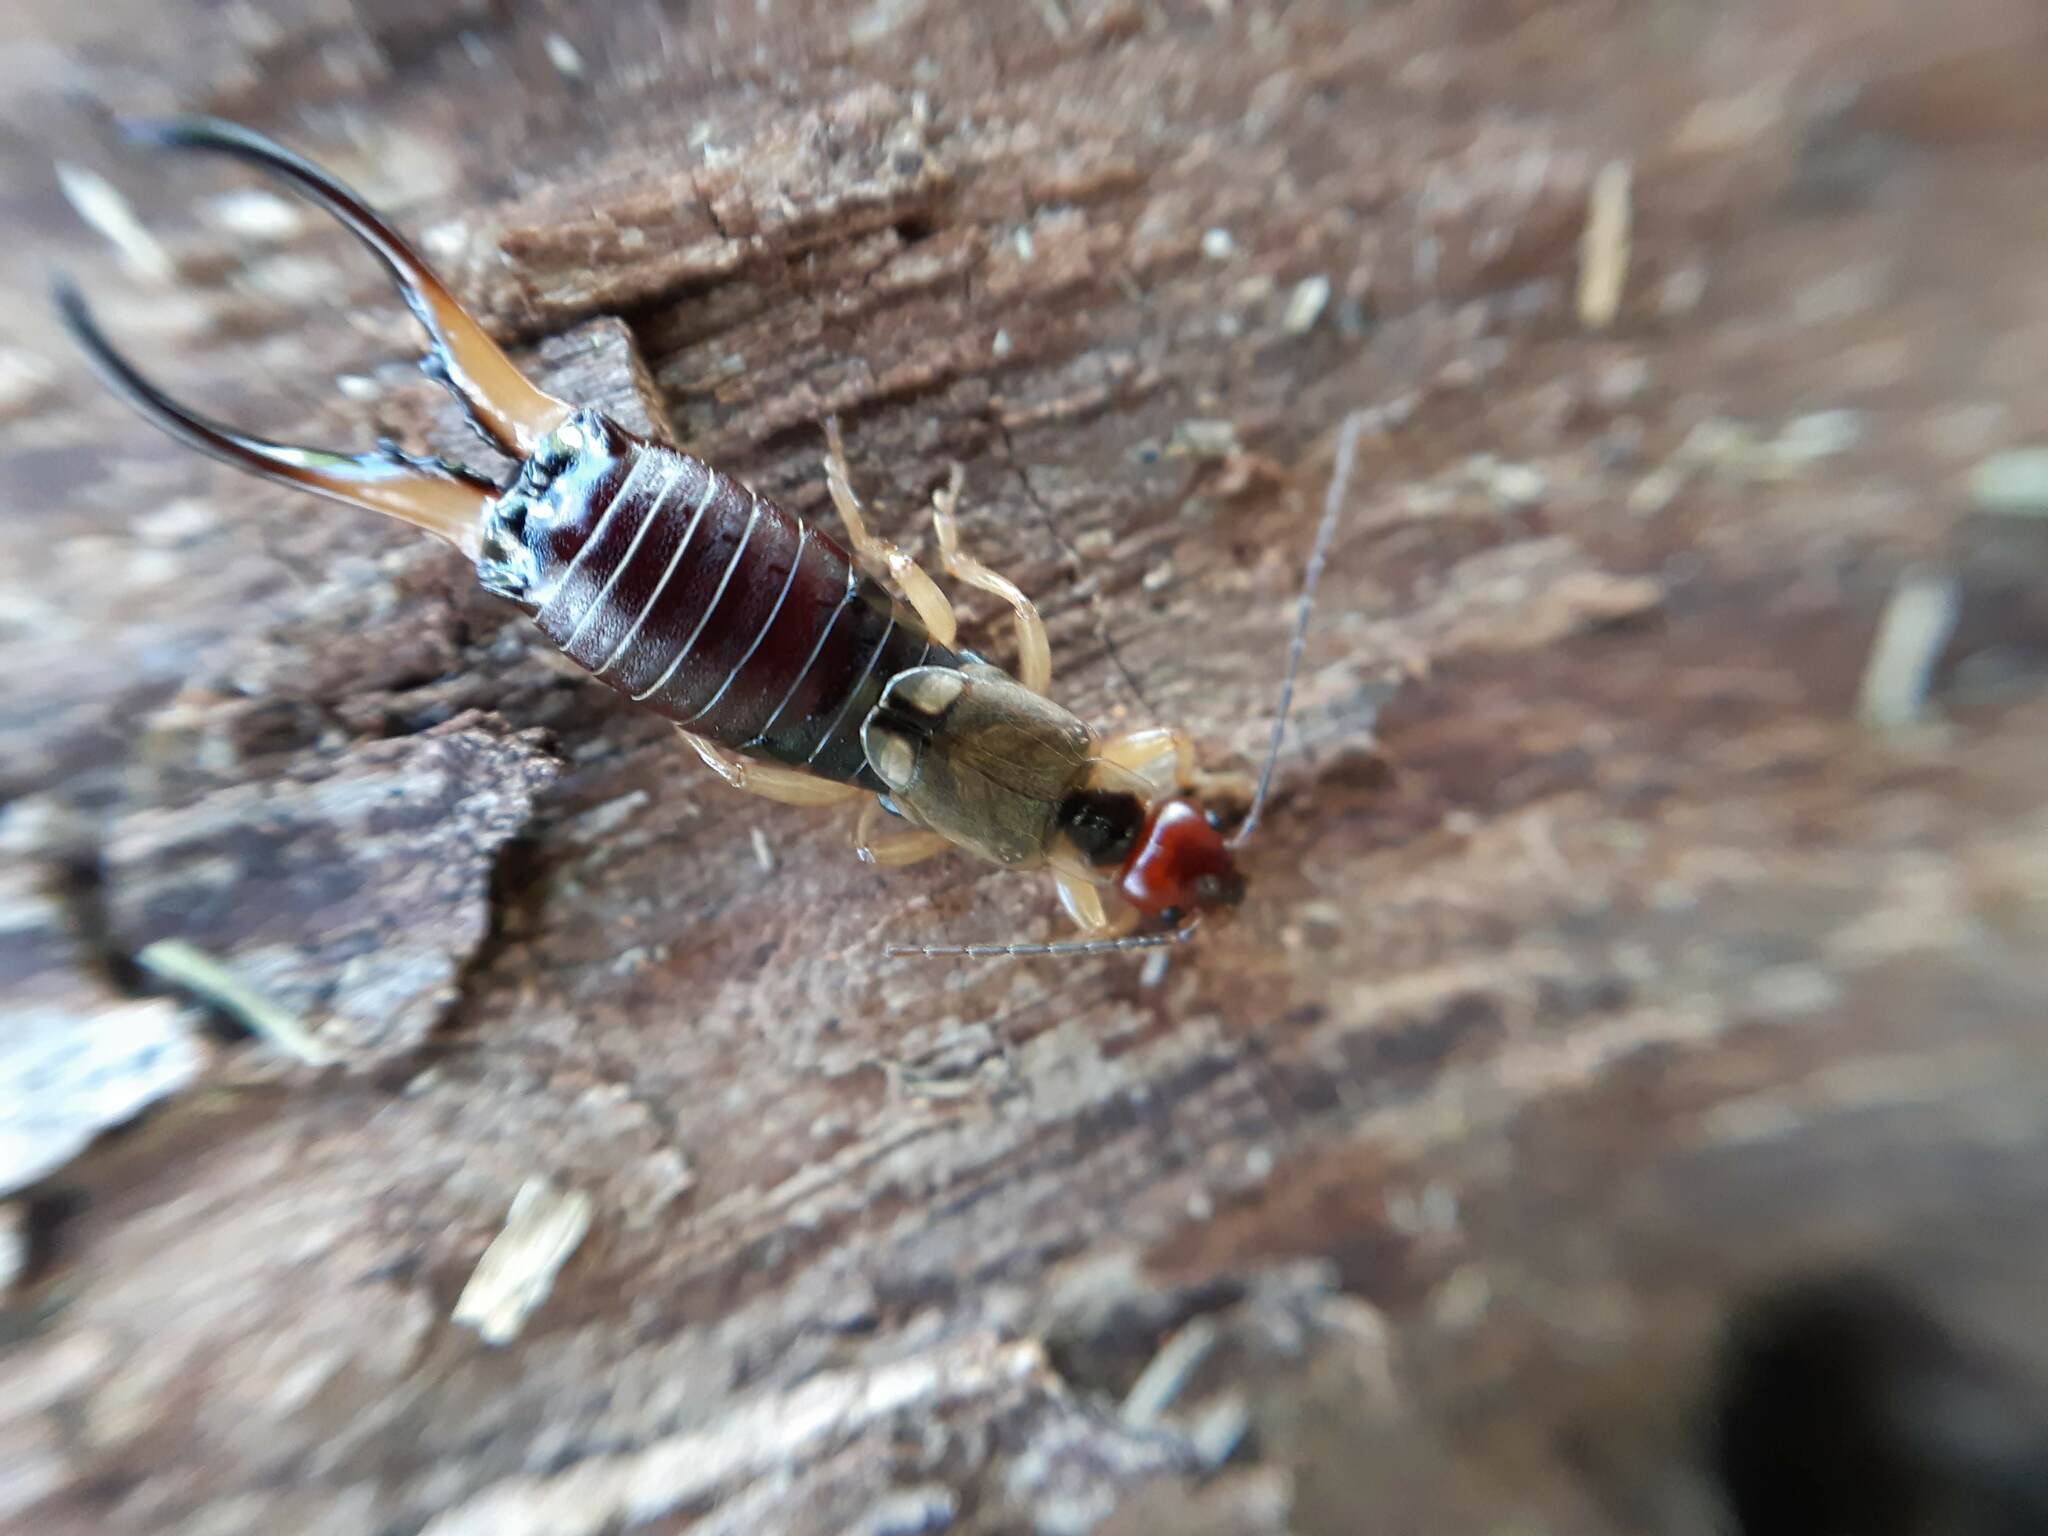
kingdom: Animalia
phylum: Arthropoda
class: Insecta
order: Dermaptera
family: Forficulidae
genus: Forficula
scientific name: Forficula dentata
